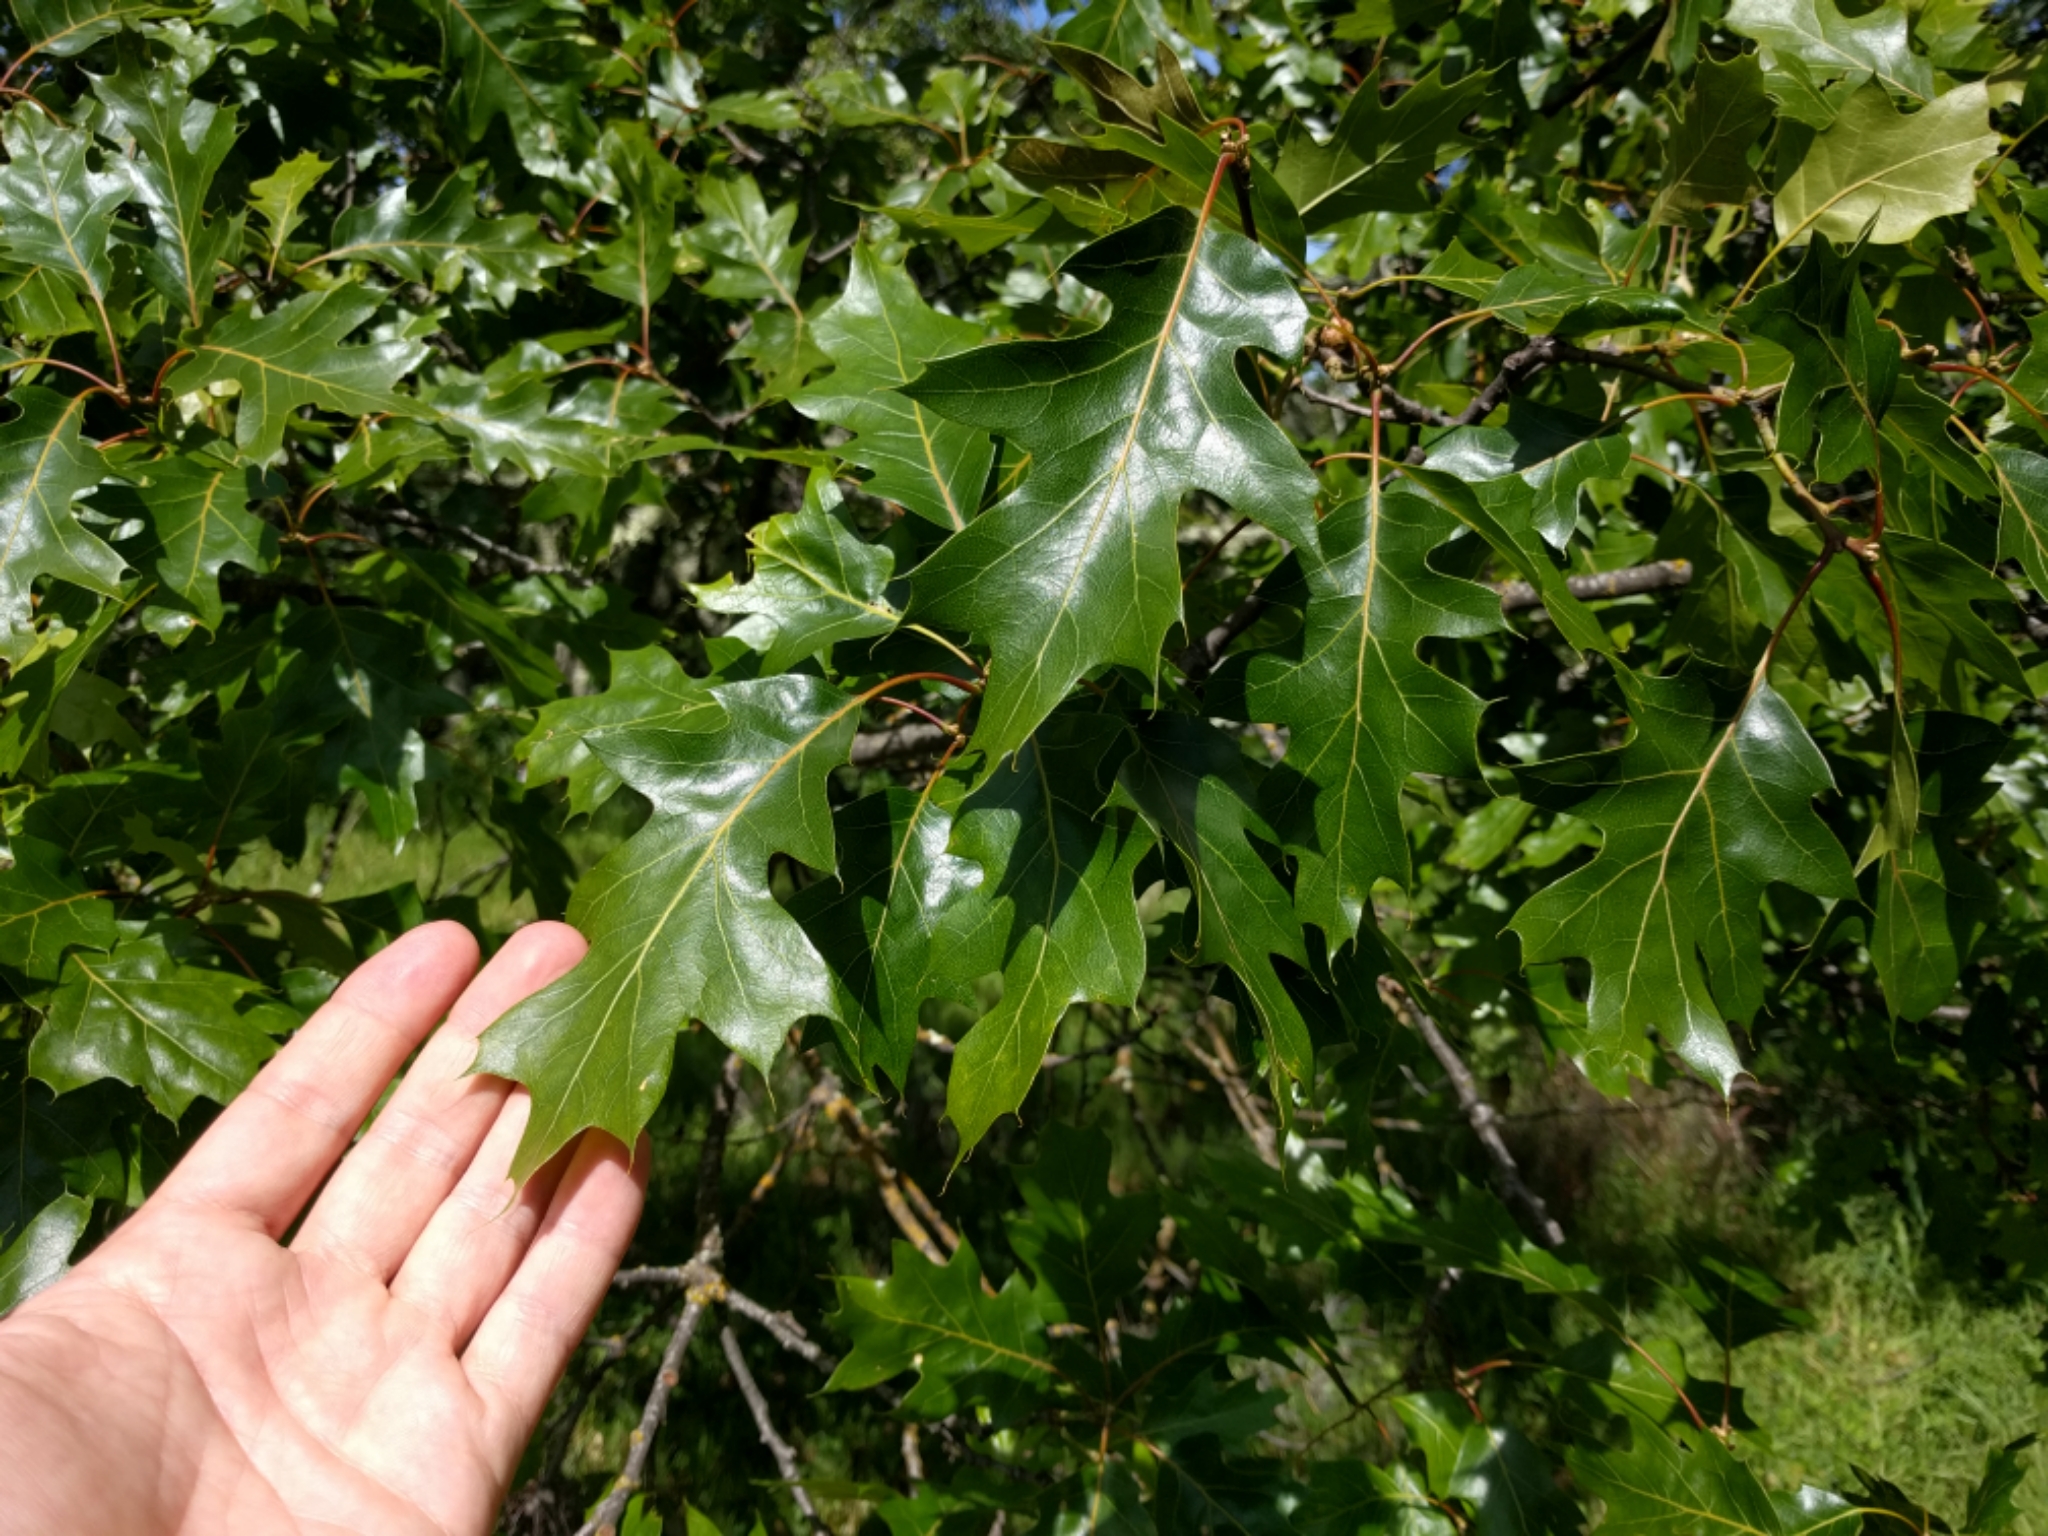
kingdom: Plantae
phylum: Tracheophyta
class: Magnoliopsida
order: Fagales
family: Fagaceae
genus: Quercus
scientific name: Quercus kelloggii
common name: California black oak
